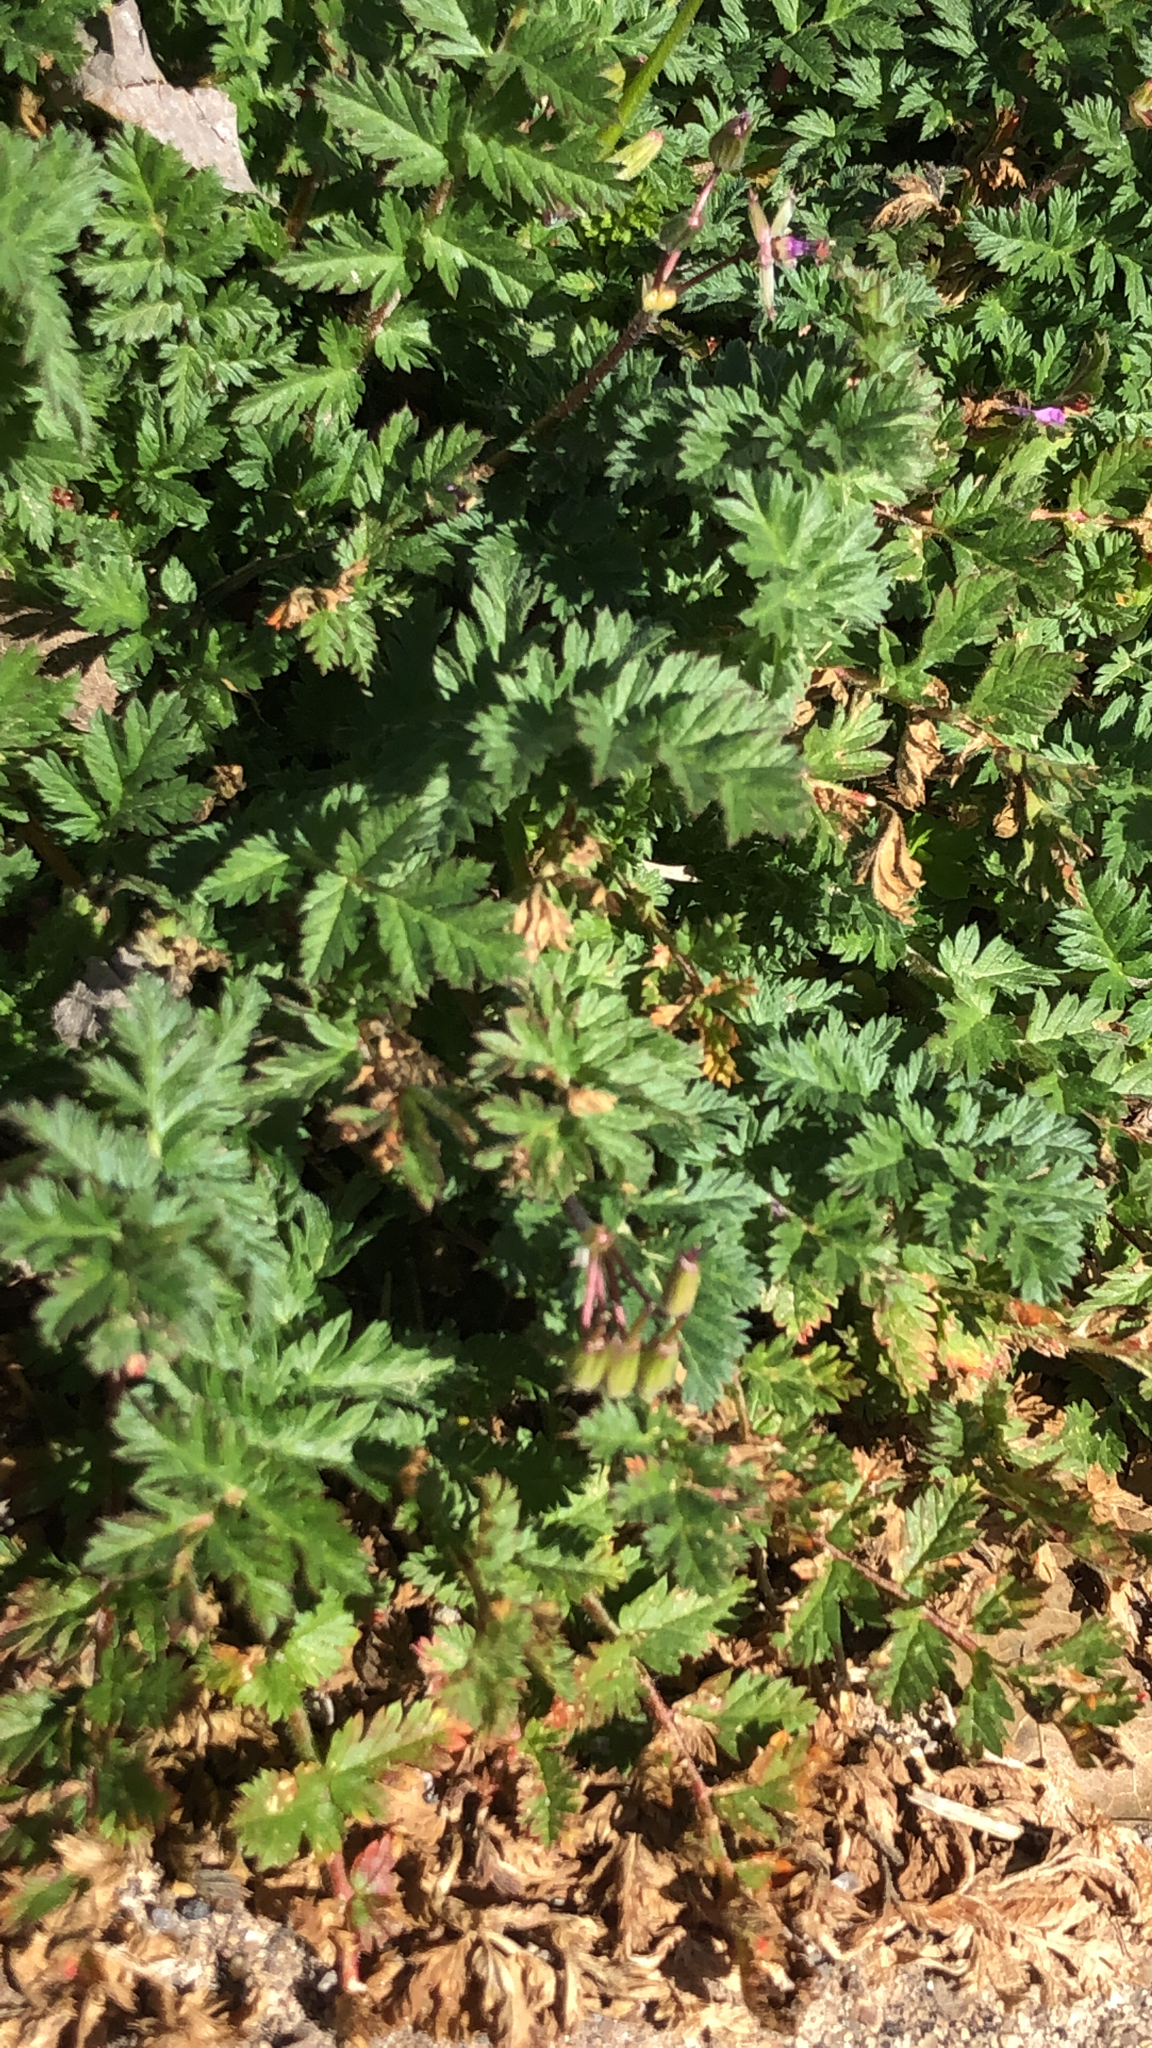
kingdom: Plantae
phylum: Tracheophyta
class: Magnoliopsida
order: Geraniales
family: Geraniaceae
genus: Erodium
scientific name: Erodium cicutarium
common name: Common stork's-bill
